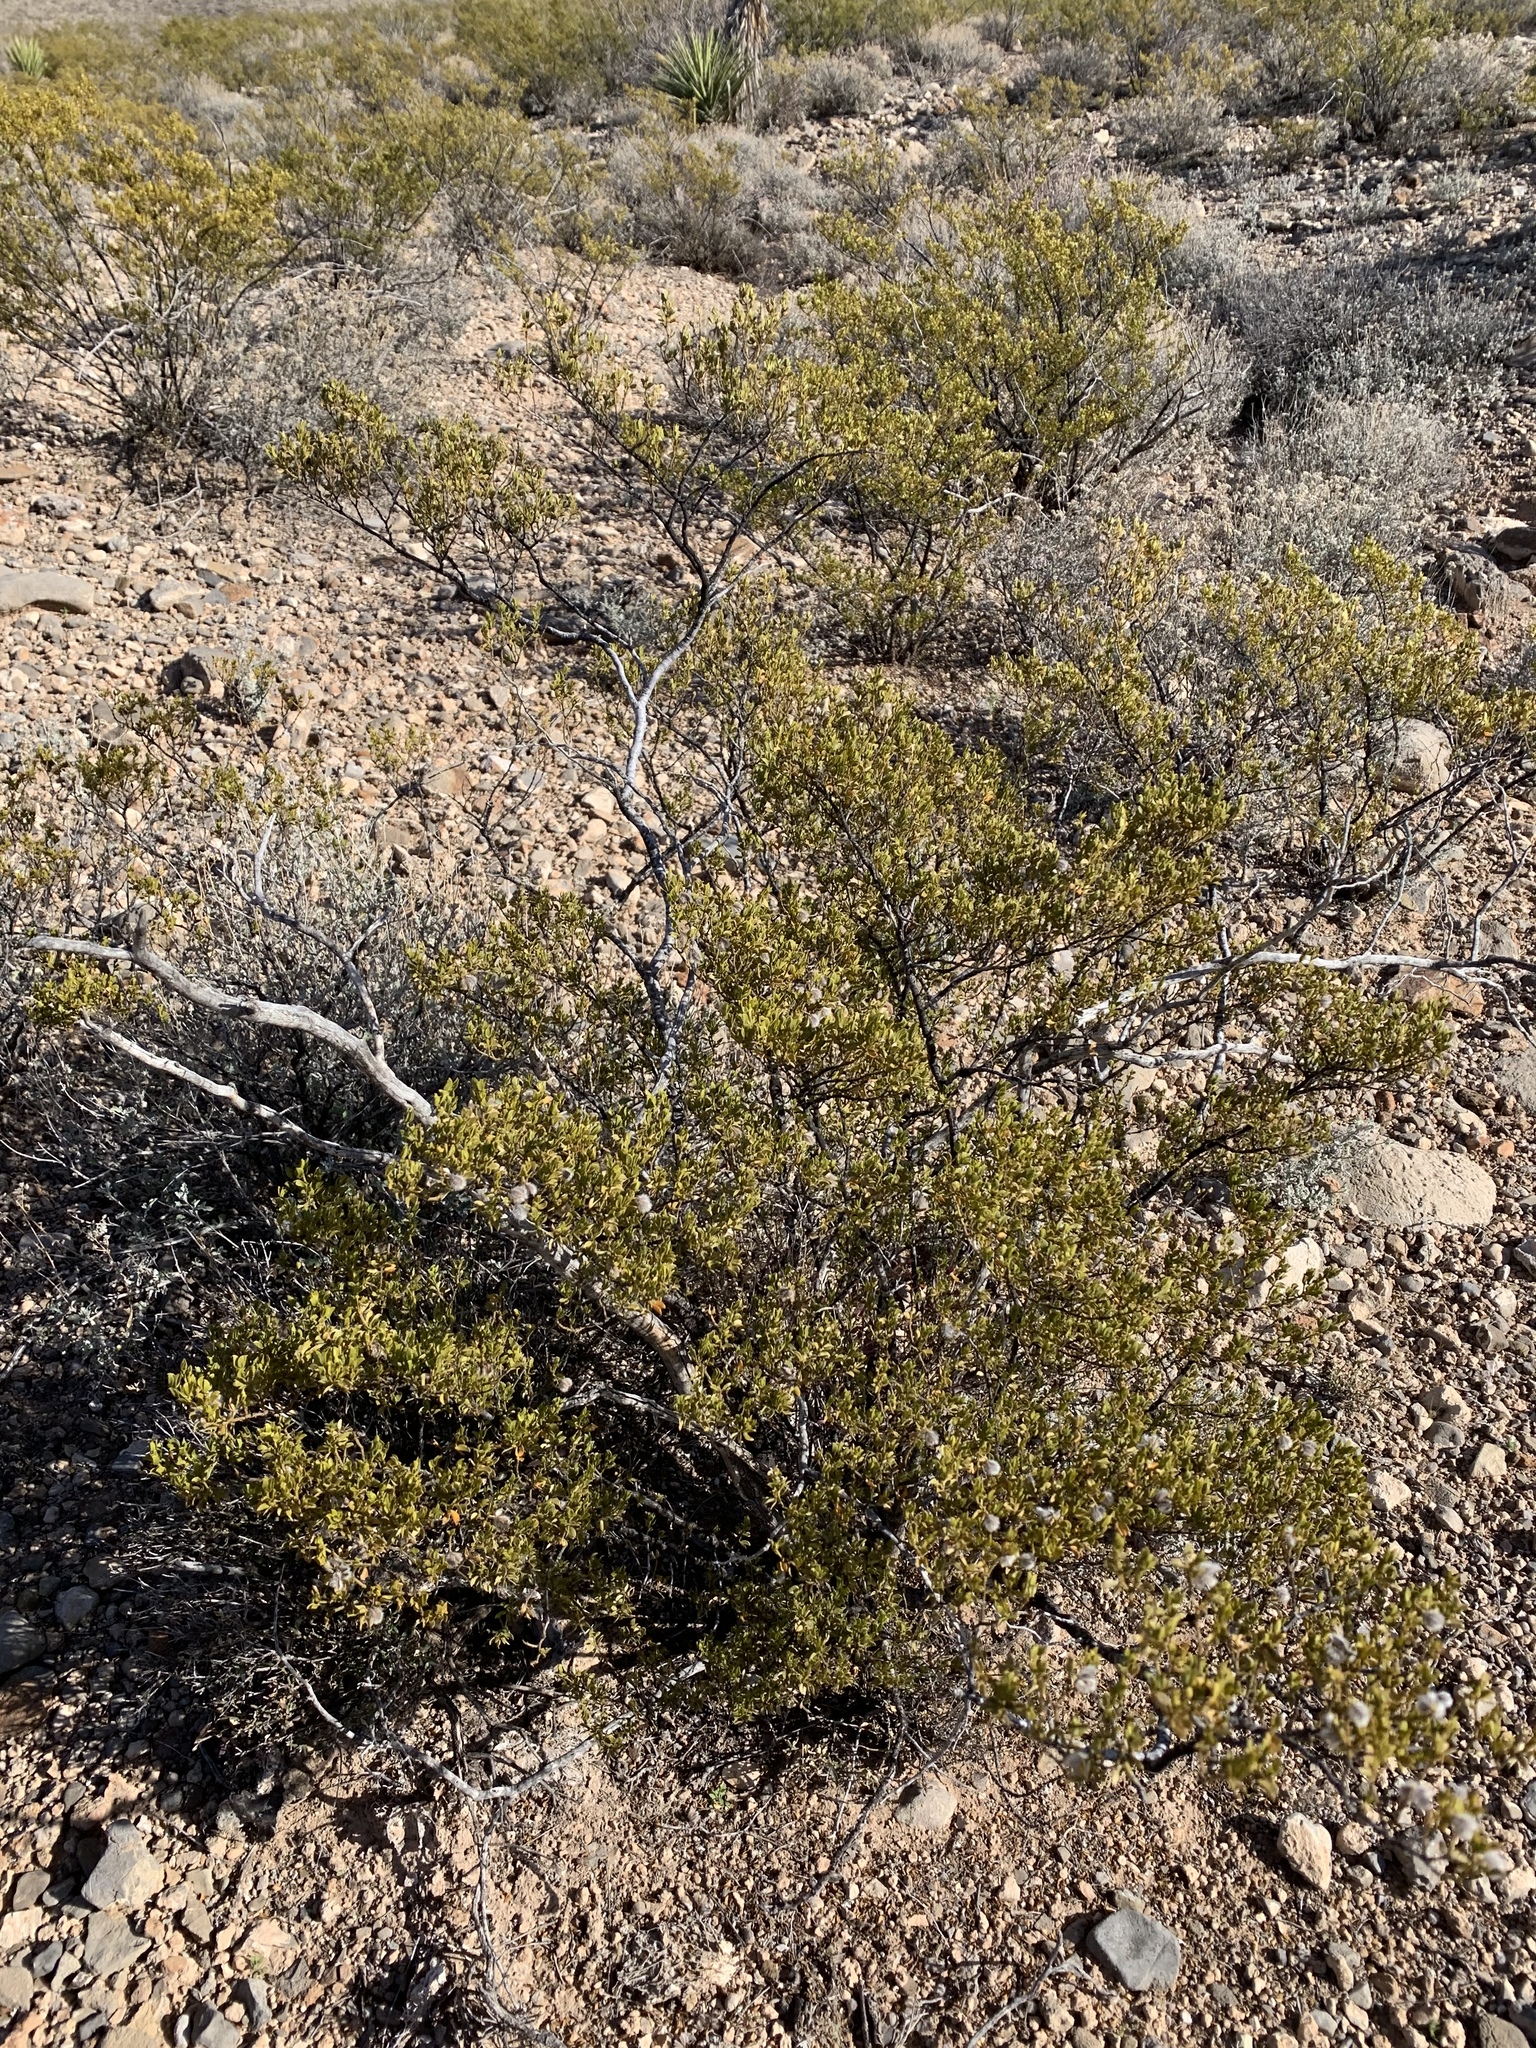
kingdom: Plantae
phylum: Tracheophyta
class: Magnoliopsida
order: Zygophyllales
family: Zygophyllaceae
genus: Larrea
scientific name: Larrea tridentata
